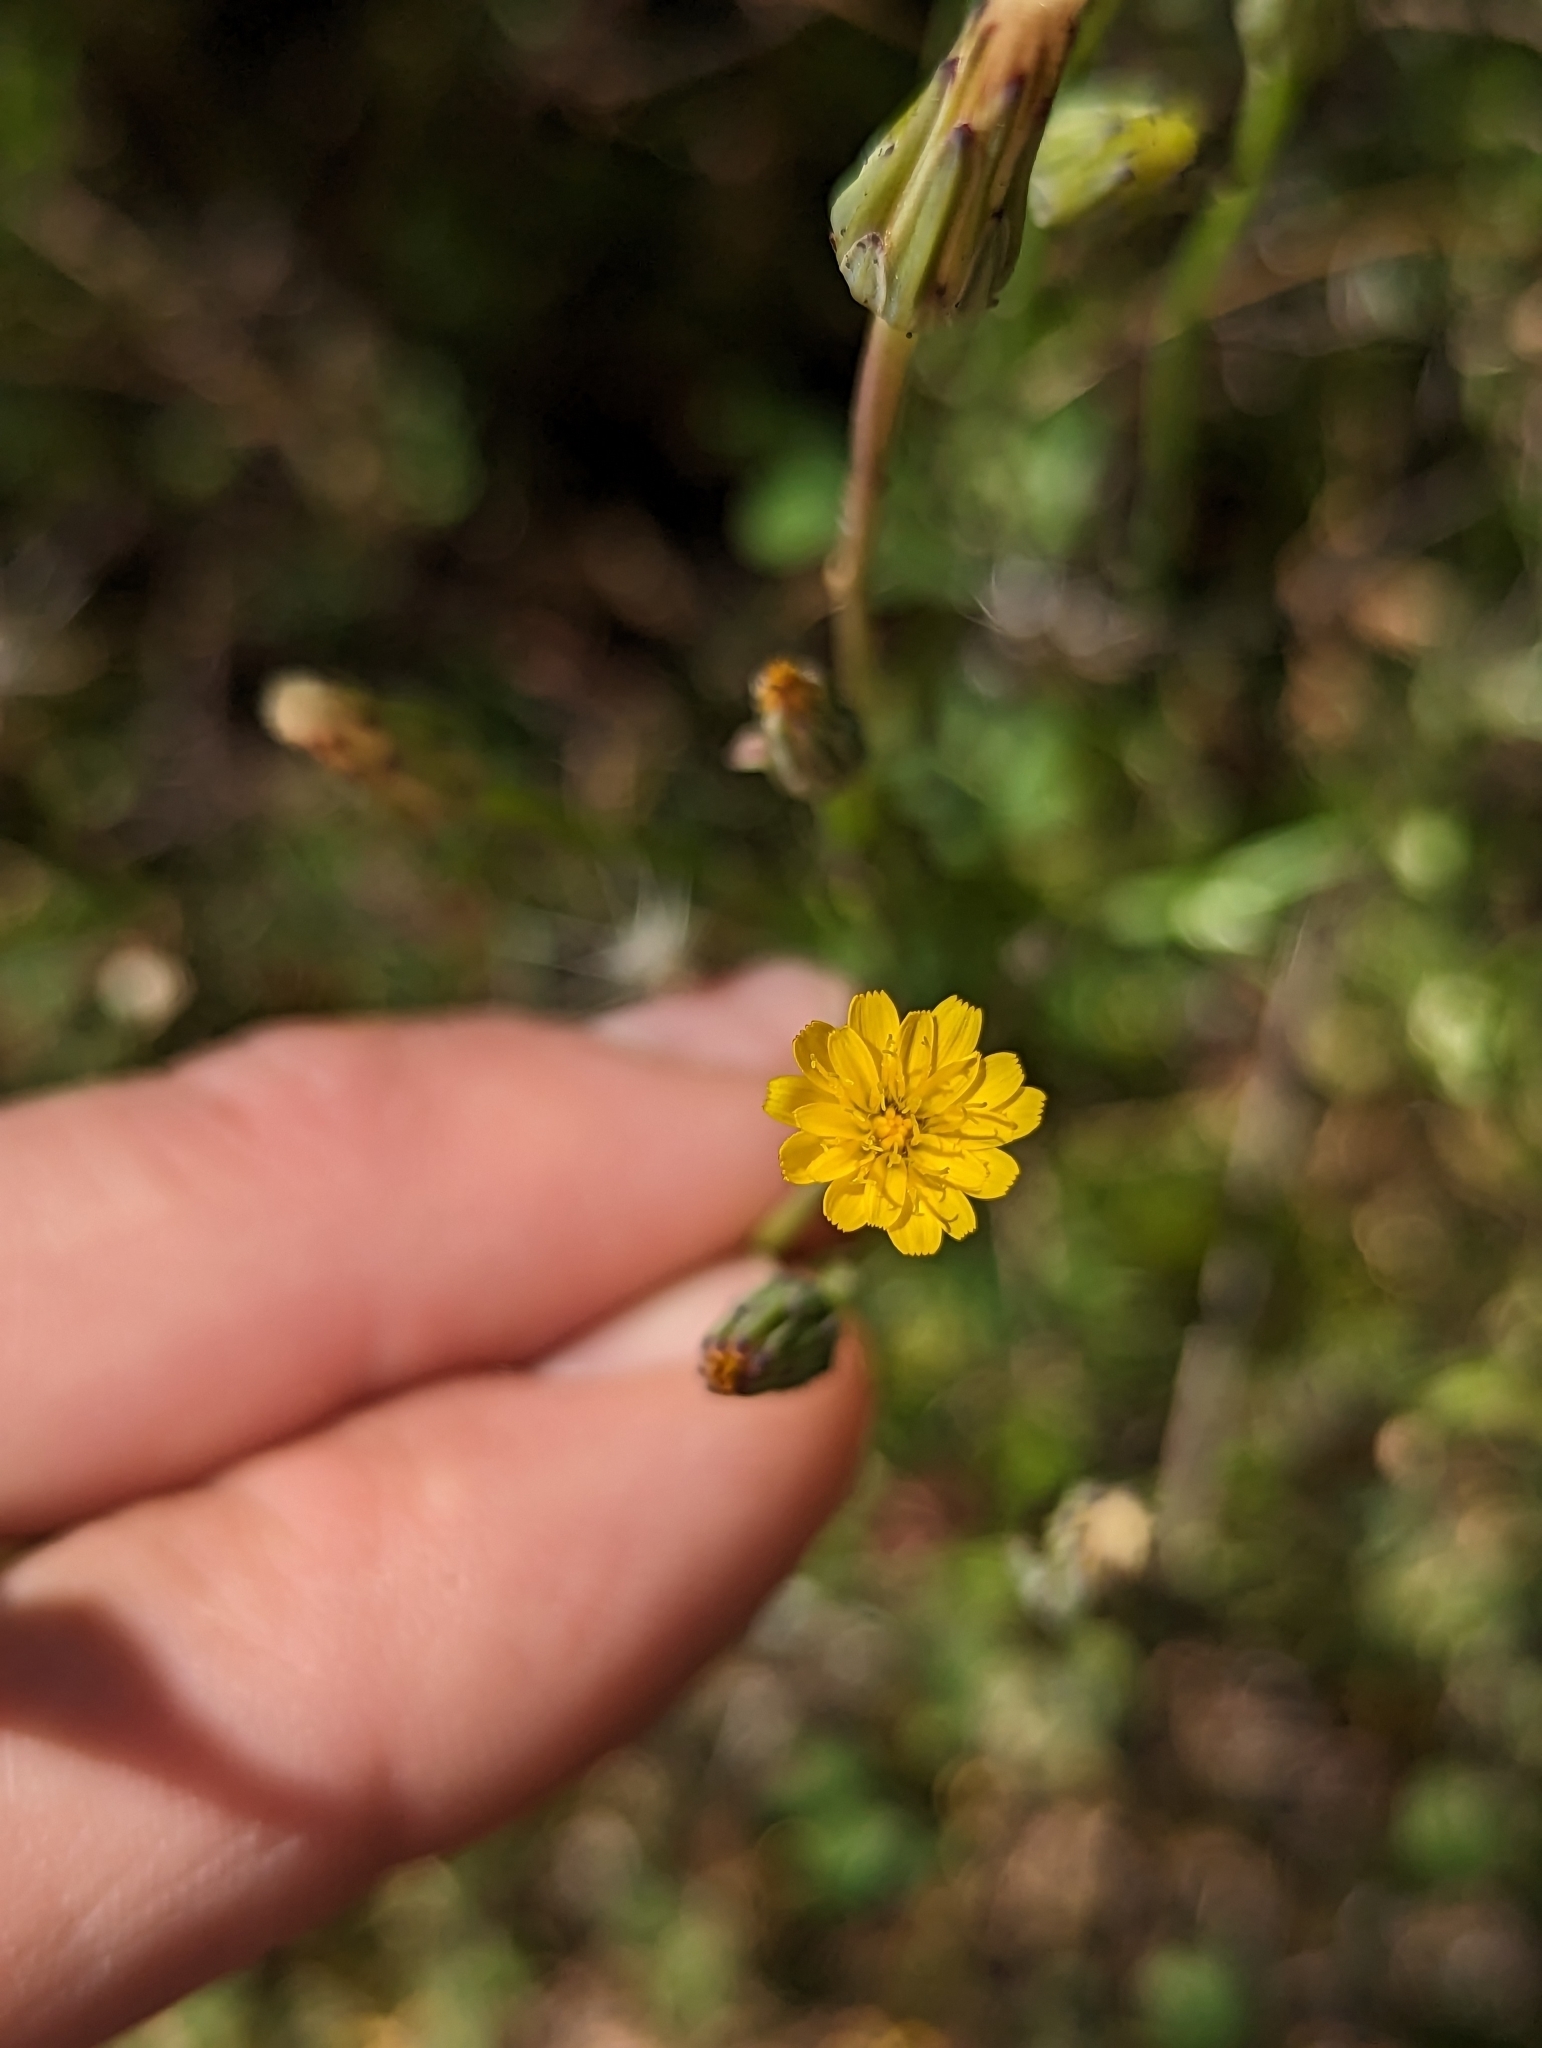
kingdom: Plantae
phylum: Tracheophyta
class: Magnoliopsida
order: Asterales
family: Asteraceae
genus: Hypochaeris
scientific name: Hypochaeris glabra
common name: Smooth catsear
